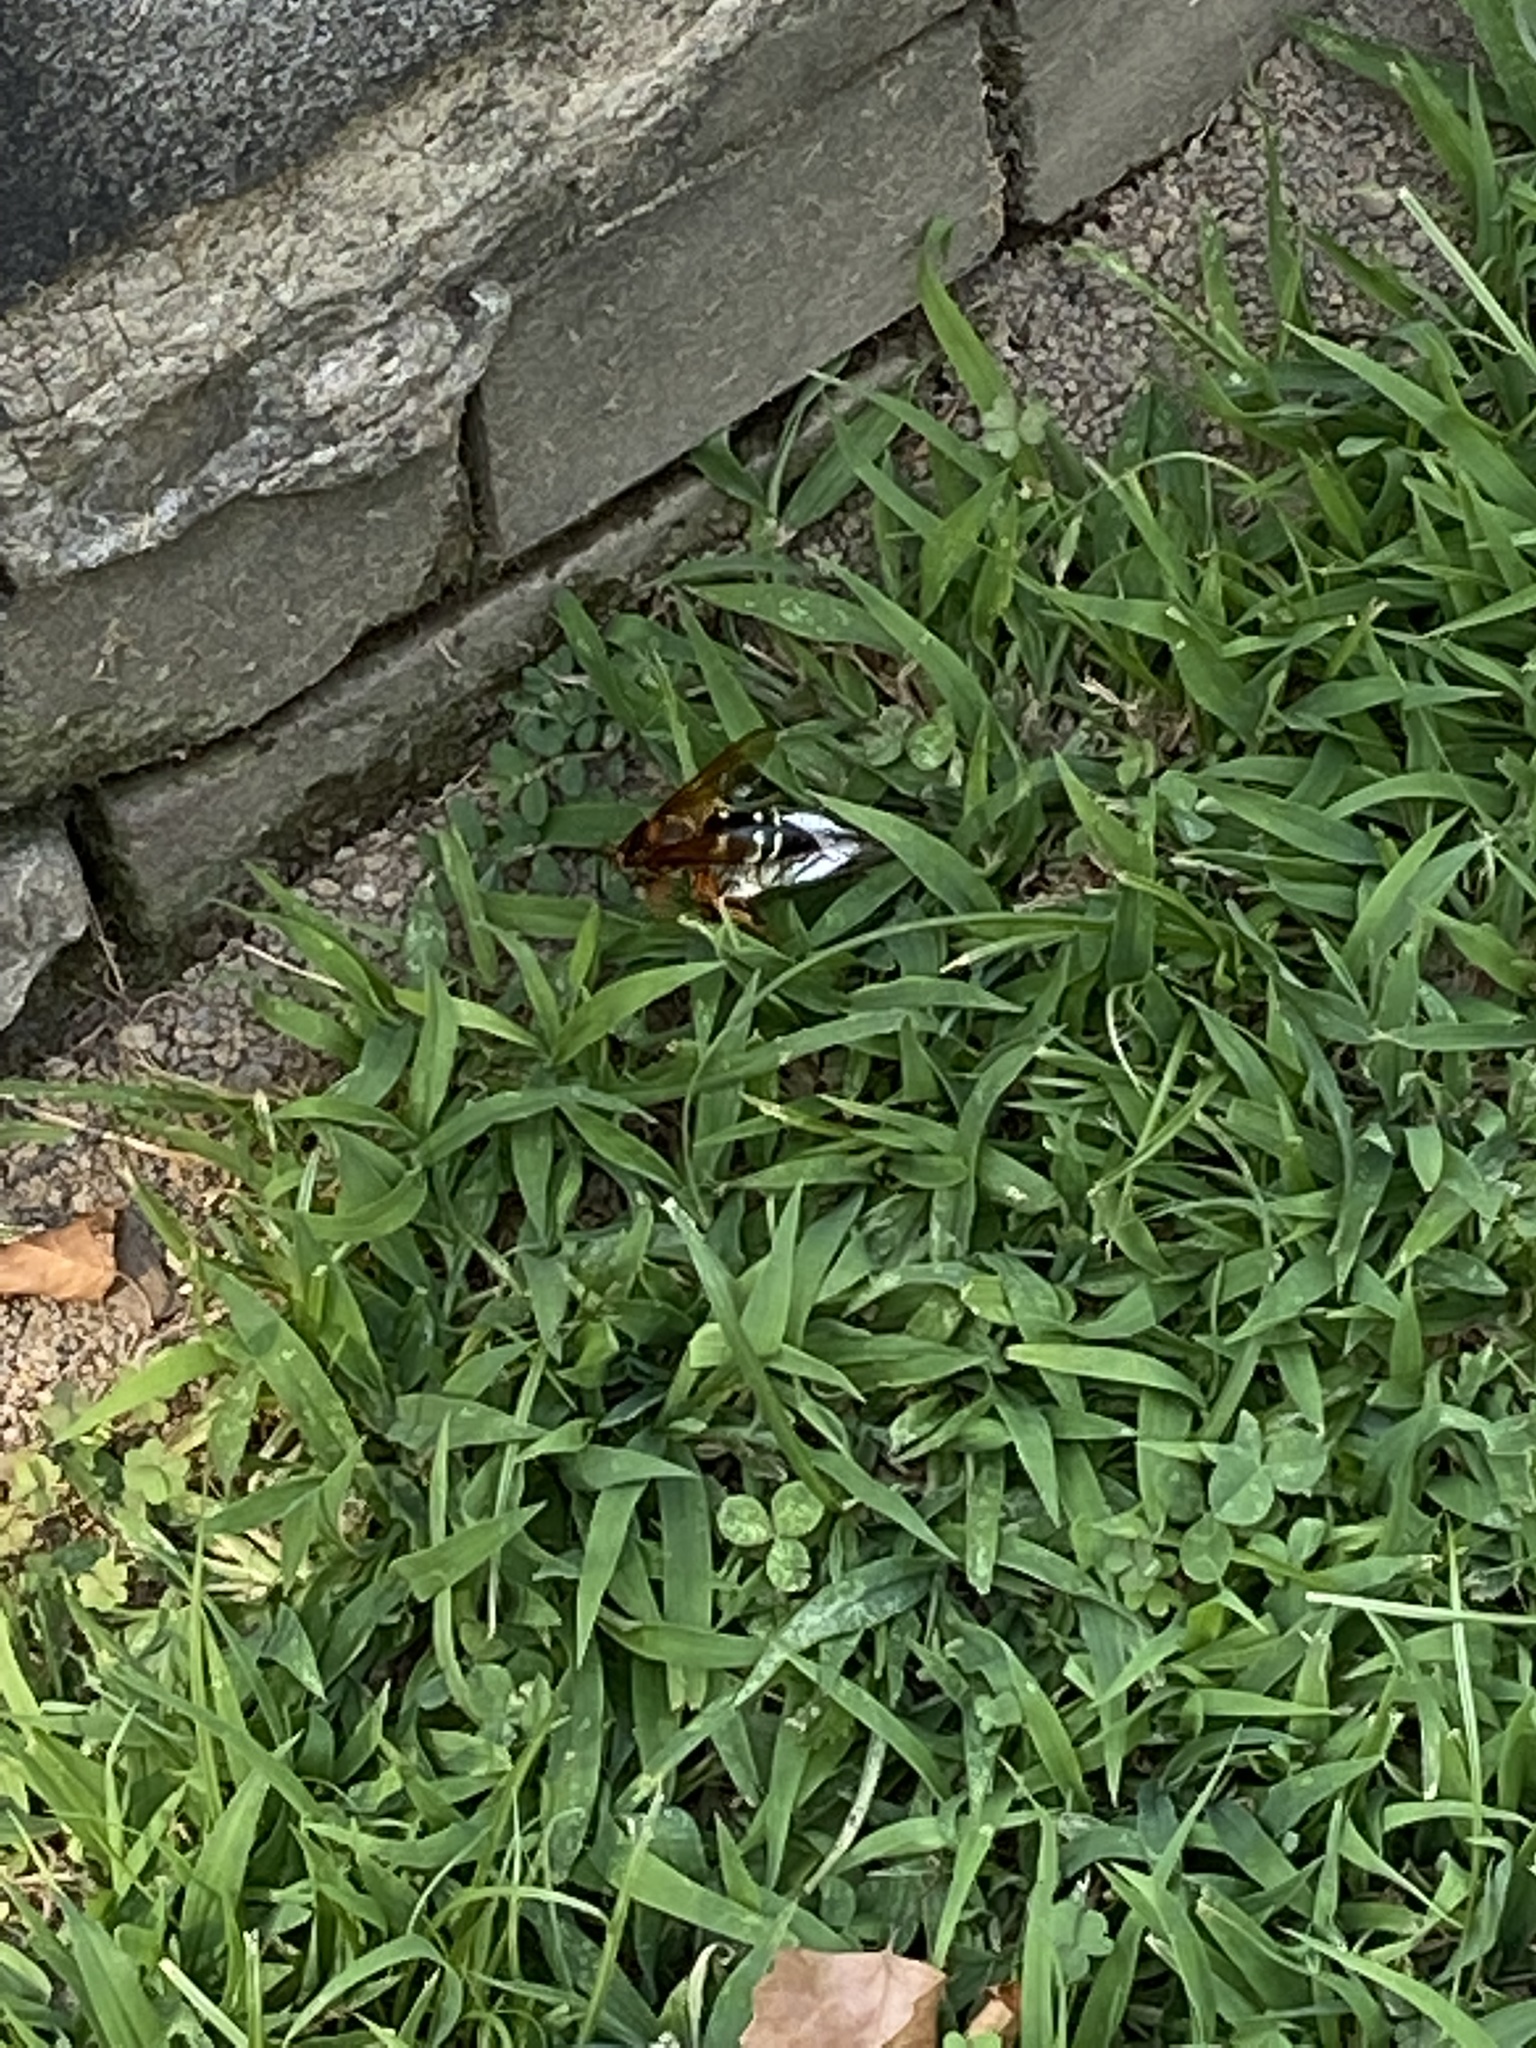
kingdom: Animalia
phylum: Arthropoda
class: Insecta
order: Hymenoptera
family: Crabronidae
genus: Sphecius
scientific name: Sphecius speciosus
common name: Cicada killer
